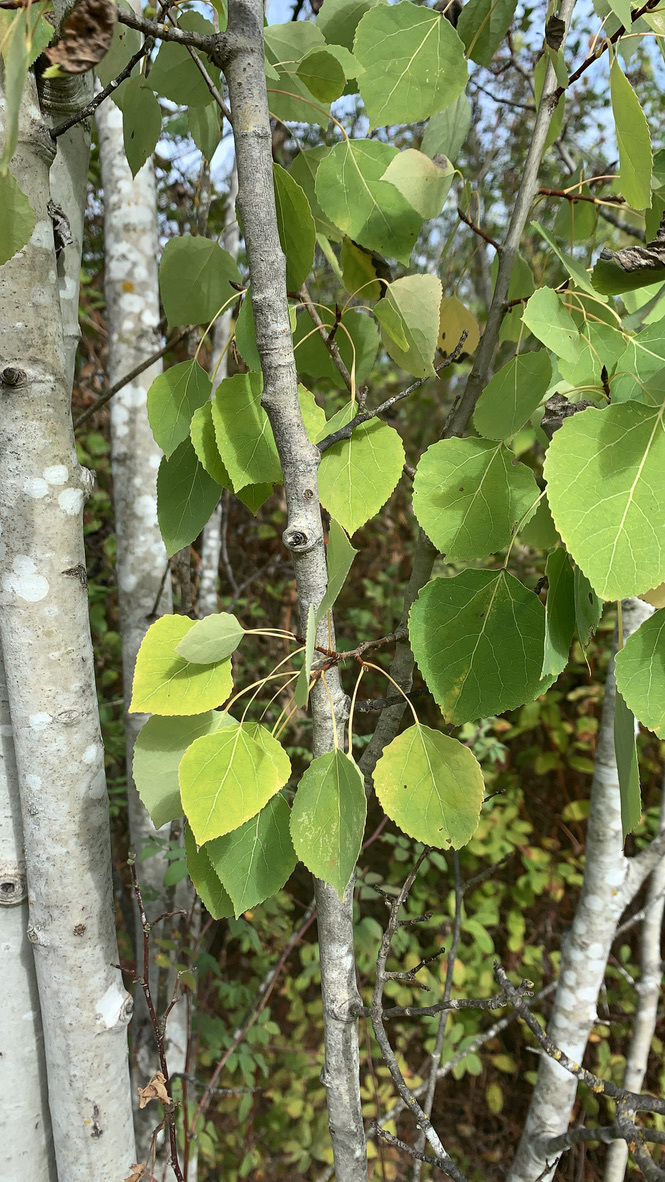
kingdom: Plantae
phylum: Tracheophyta
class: Magnoliopsida
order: Malpighiales
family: Salicaceae
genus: Populus
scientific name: Populus tremuloides
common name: Quaking aspen
